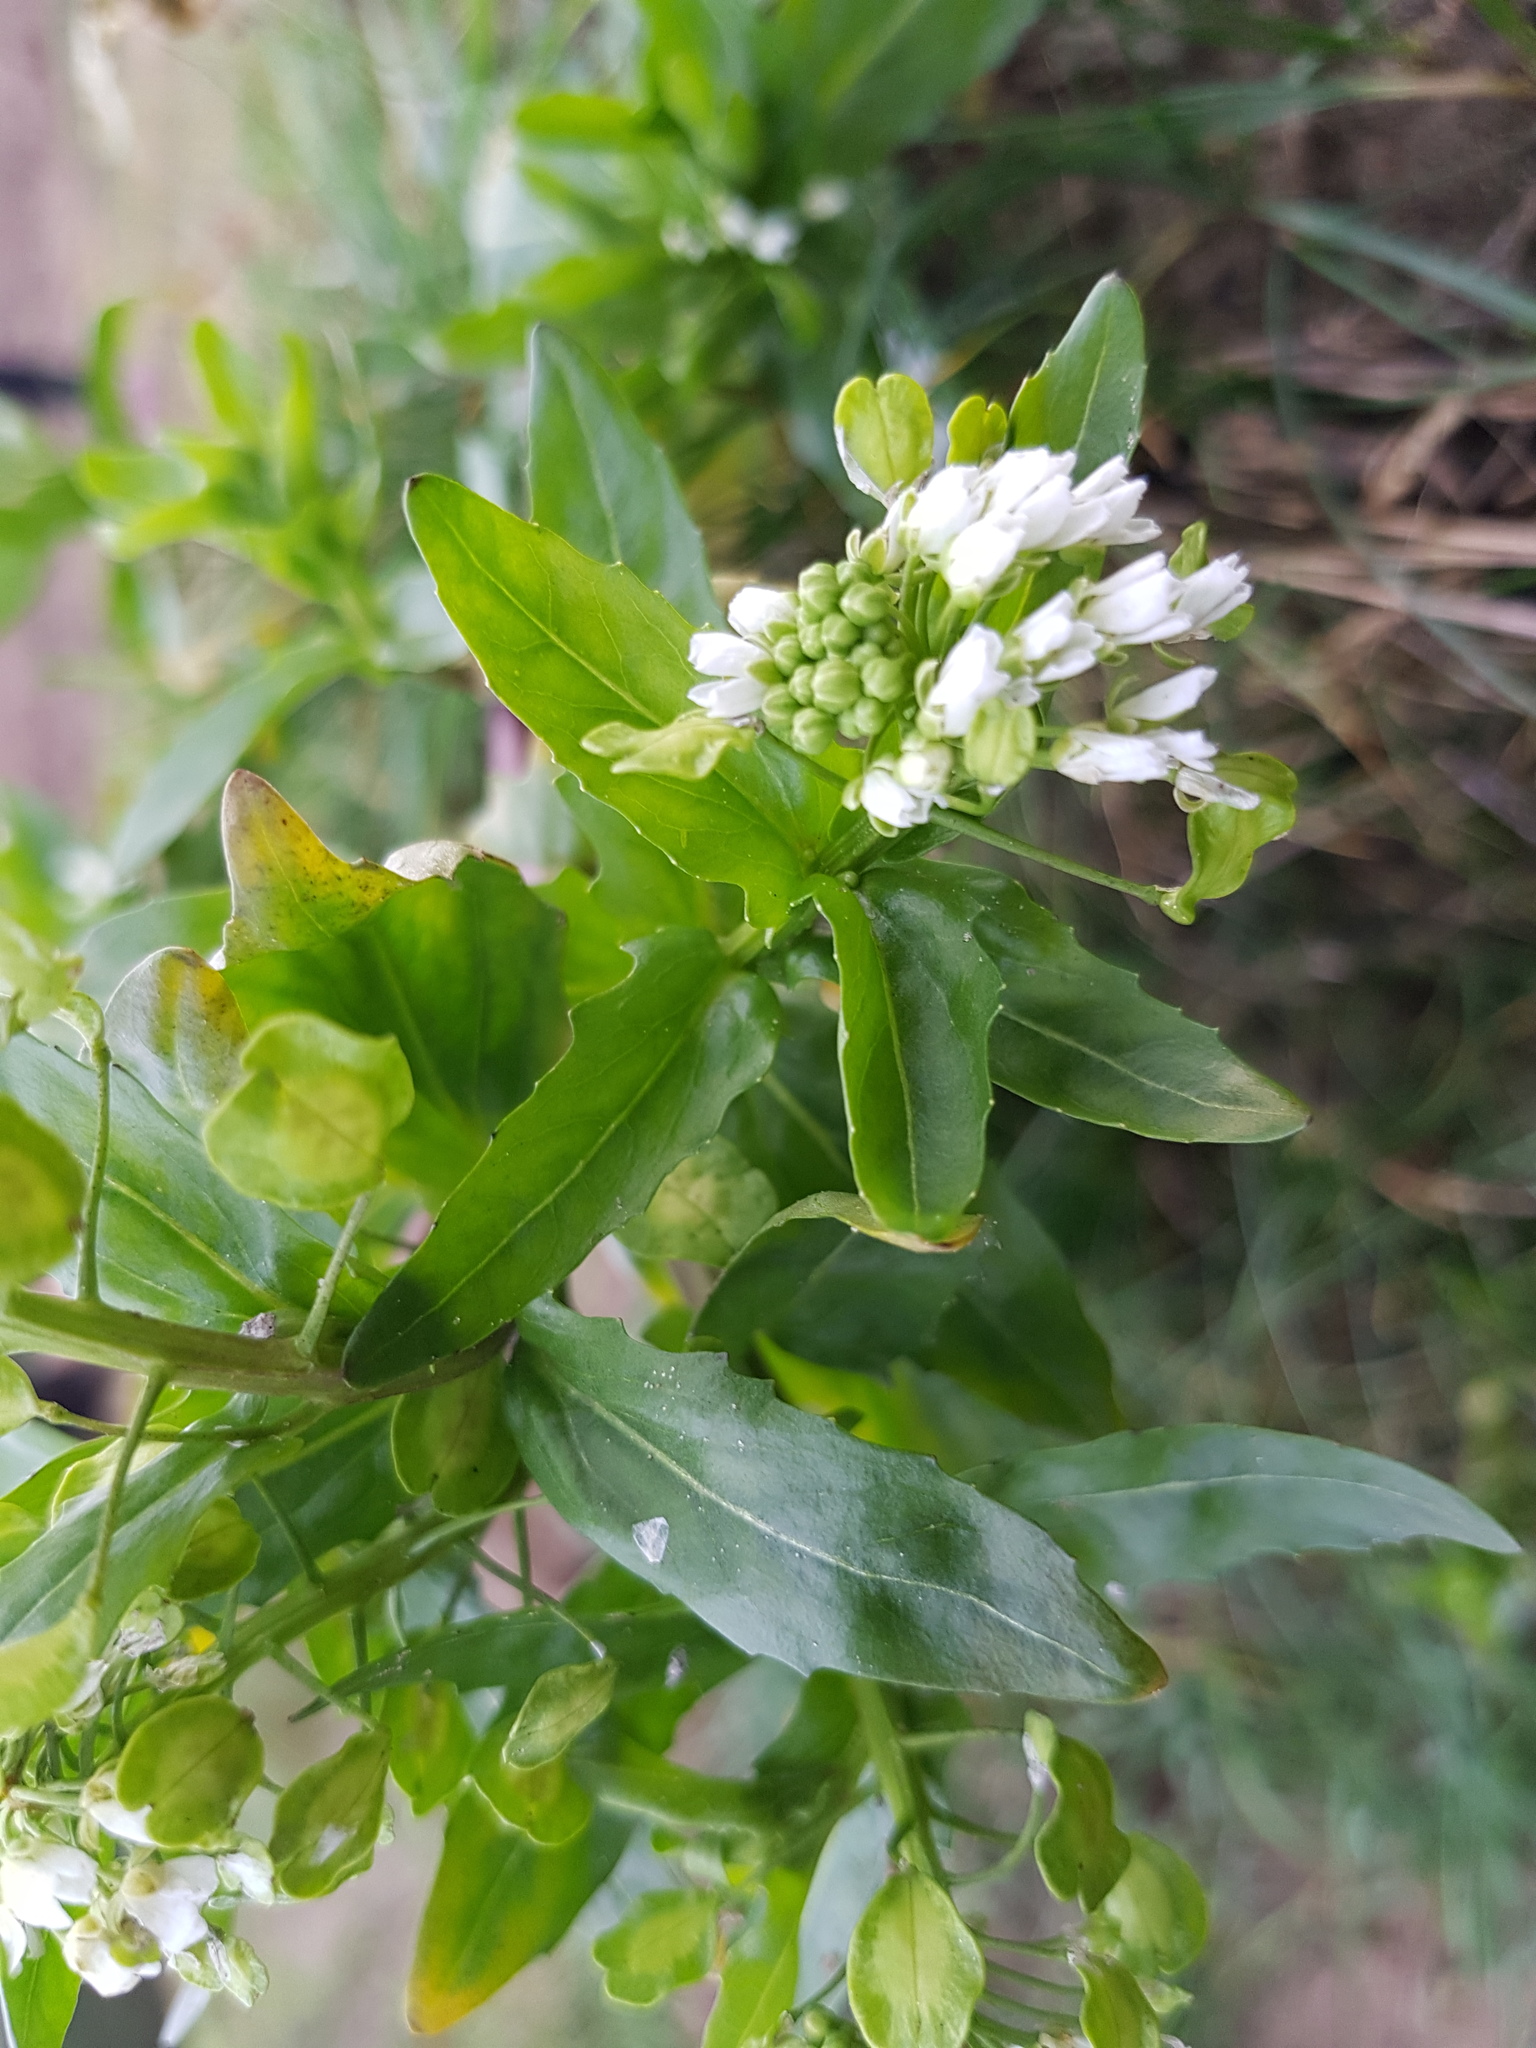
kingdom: Plantae
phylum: Tracheophyta
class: Magnoliopsida
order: Brassicales
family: Brassicaceae
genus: Thlaspi
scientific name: Thlaspi arvense
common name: Field pennycress
